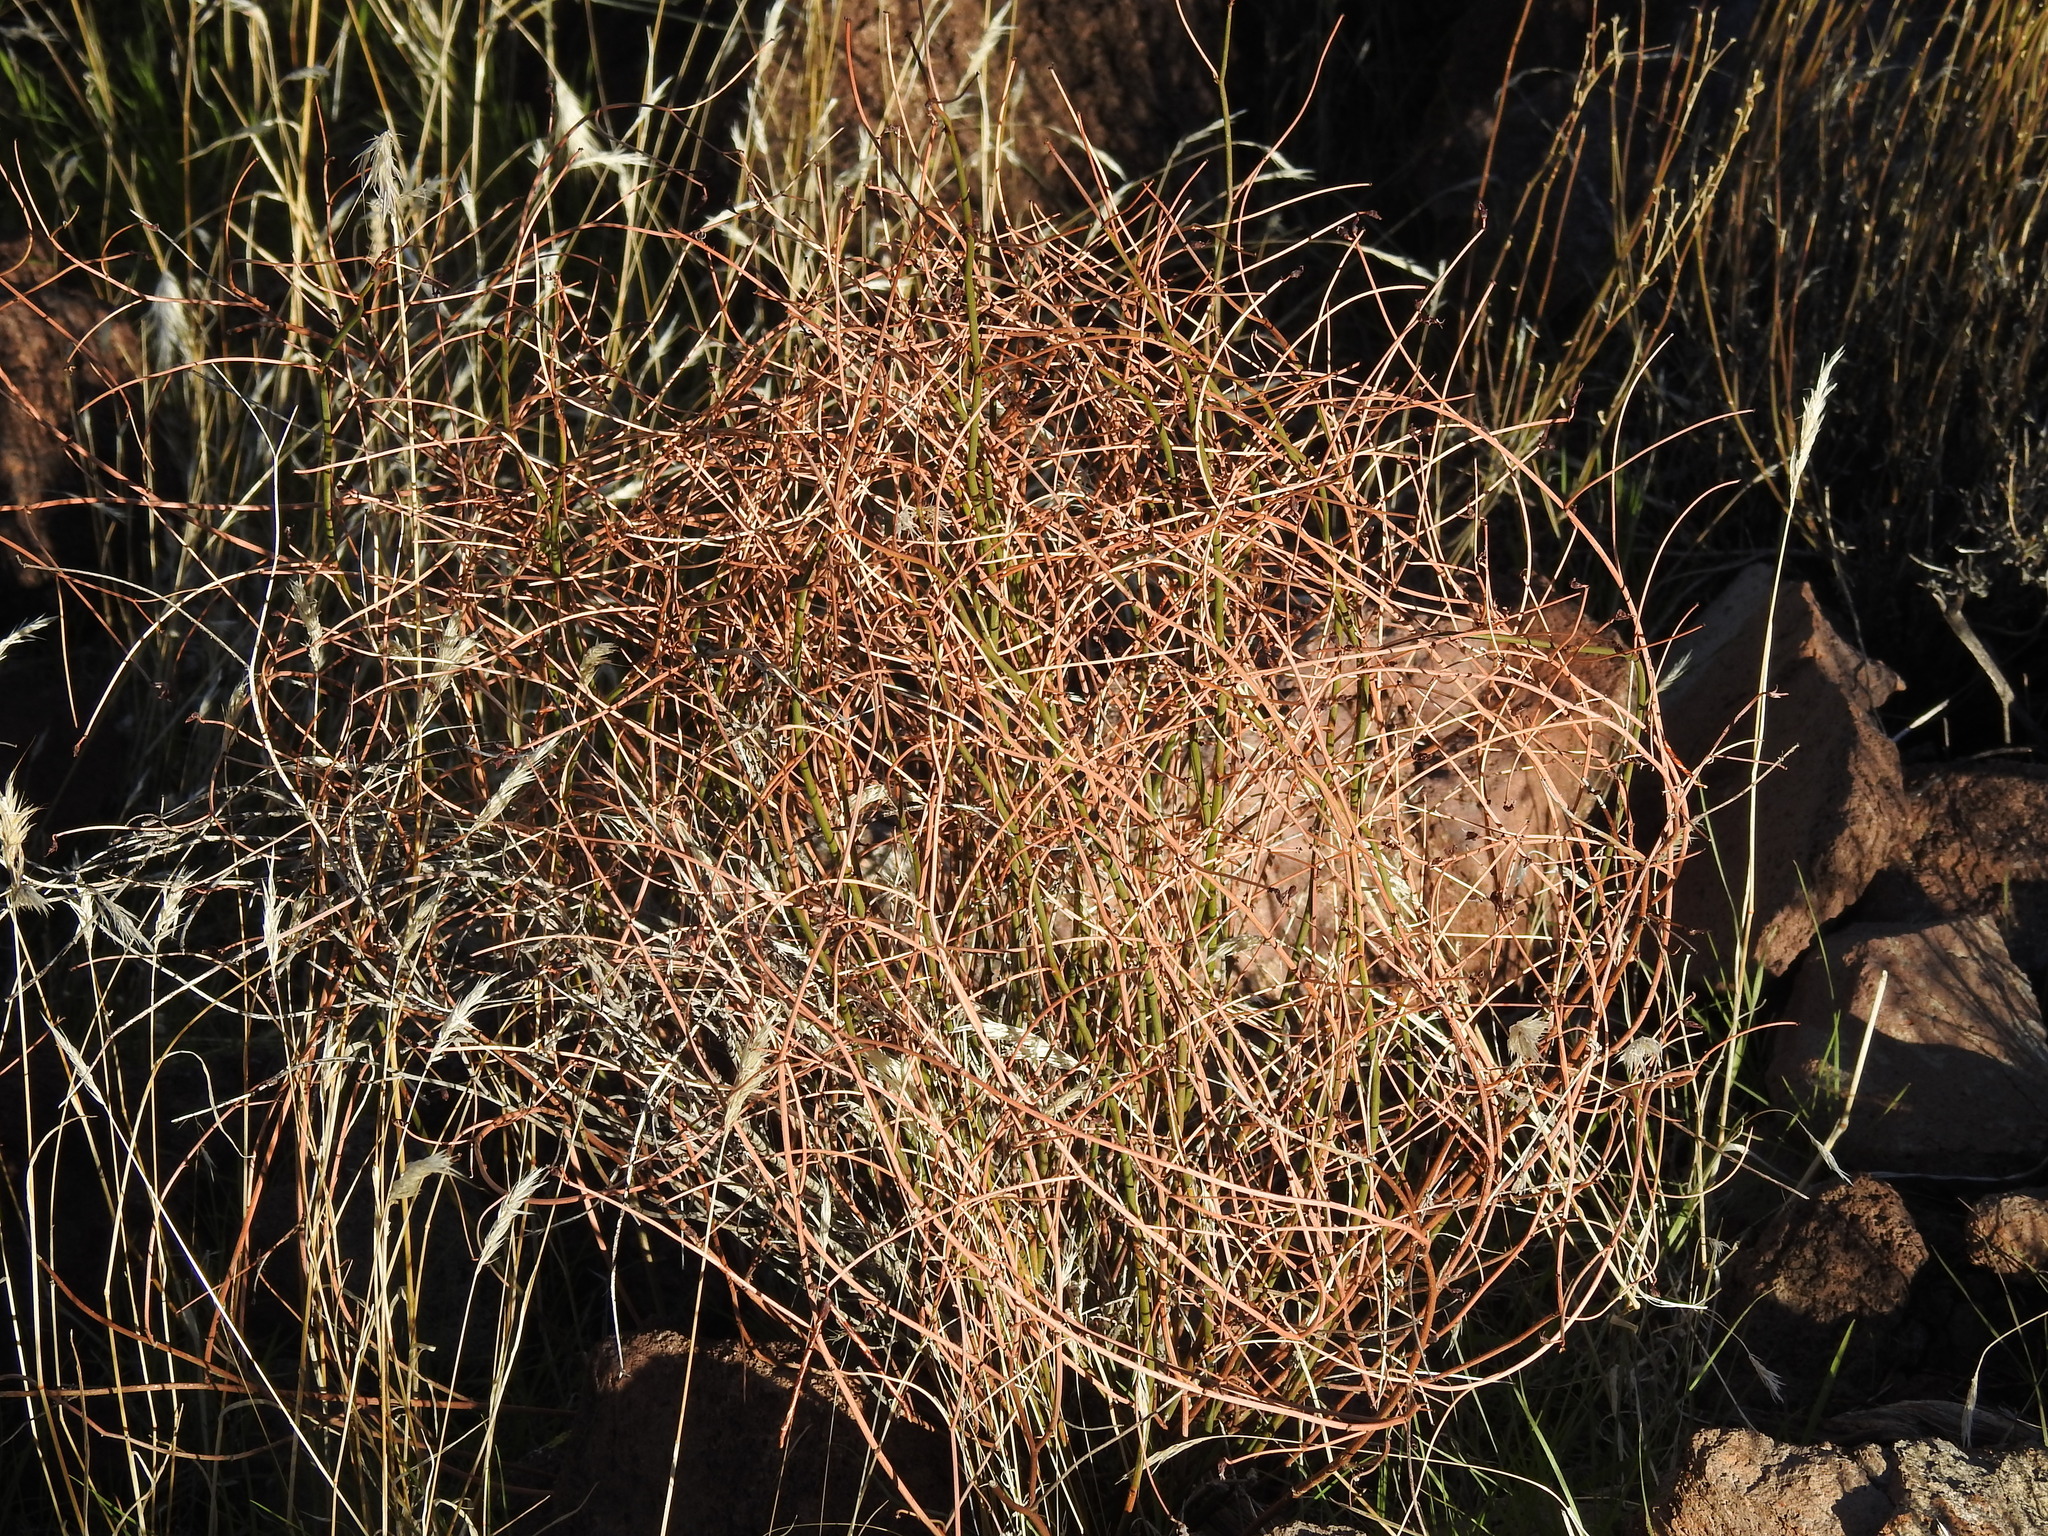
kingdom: Plantae
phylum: Tracheophyta
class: Magnoliopsida
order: Fabales
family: Fabaceae
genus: Acmispon
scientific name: Acmispon rigidus
